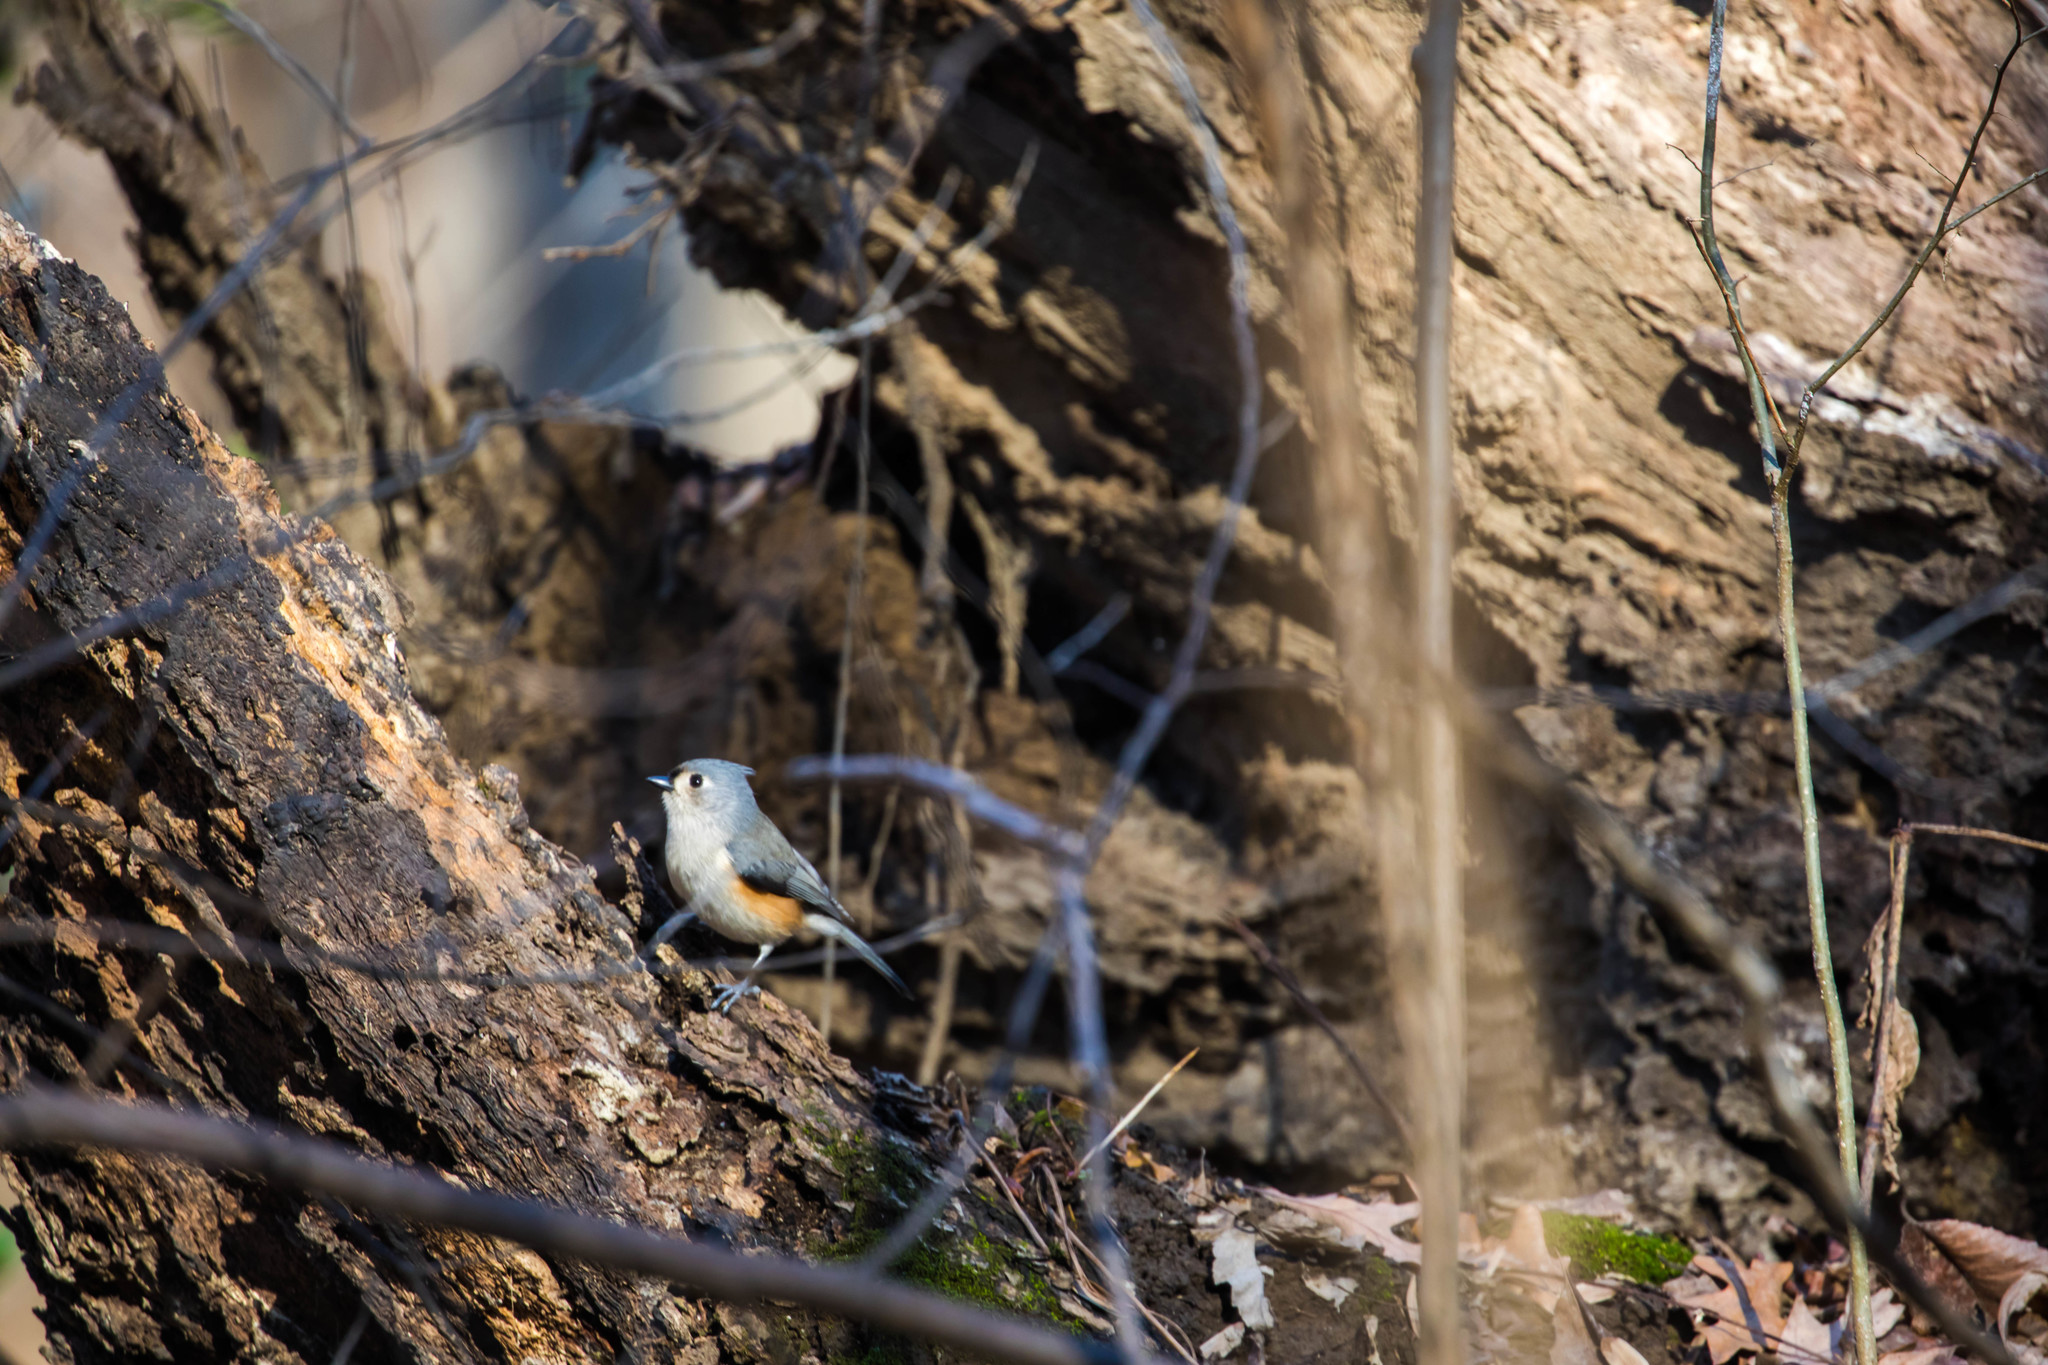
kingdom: Animalia
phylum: Chordata
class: Aves
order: Passeriformes
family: Paridae
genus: Baeolophus
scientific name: Baeolophus bicolor
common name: Tufted titmouse
